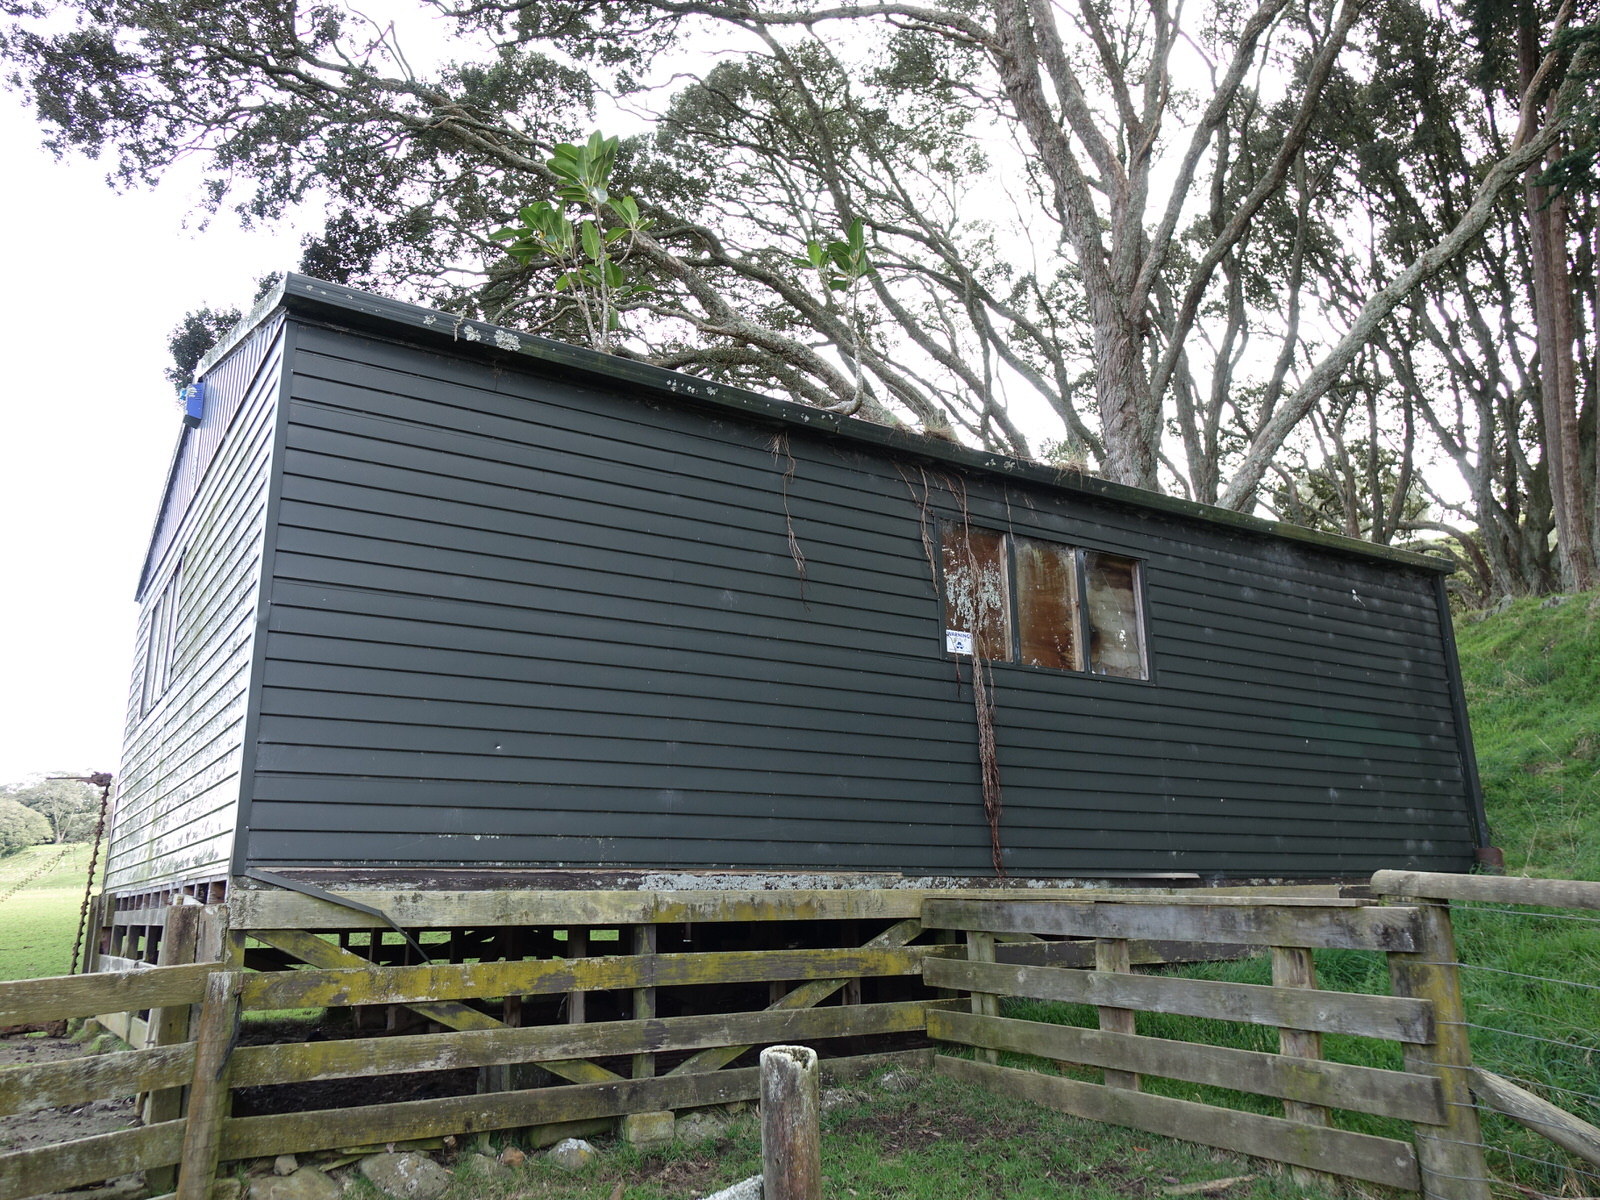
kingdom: Plantae
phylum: Tracheophyta
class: Magnoliopsida
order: Rosales
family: Moraceae
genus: Ficus
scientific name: Ficus macrophylla
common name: Moreton bay fig
